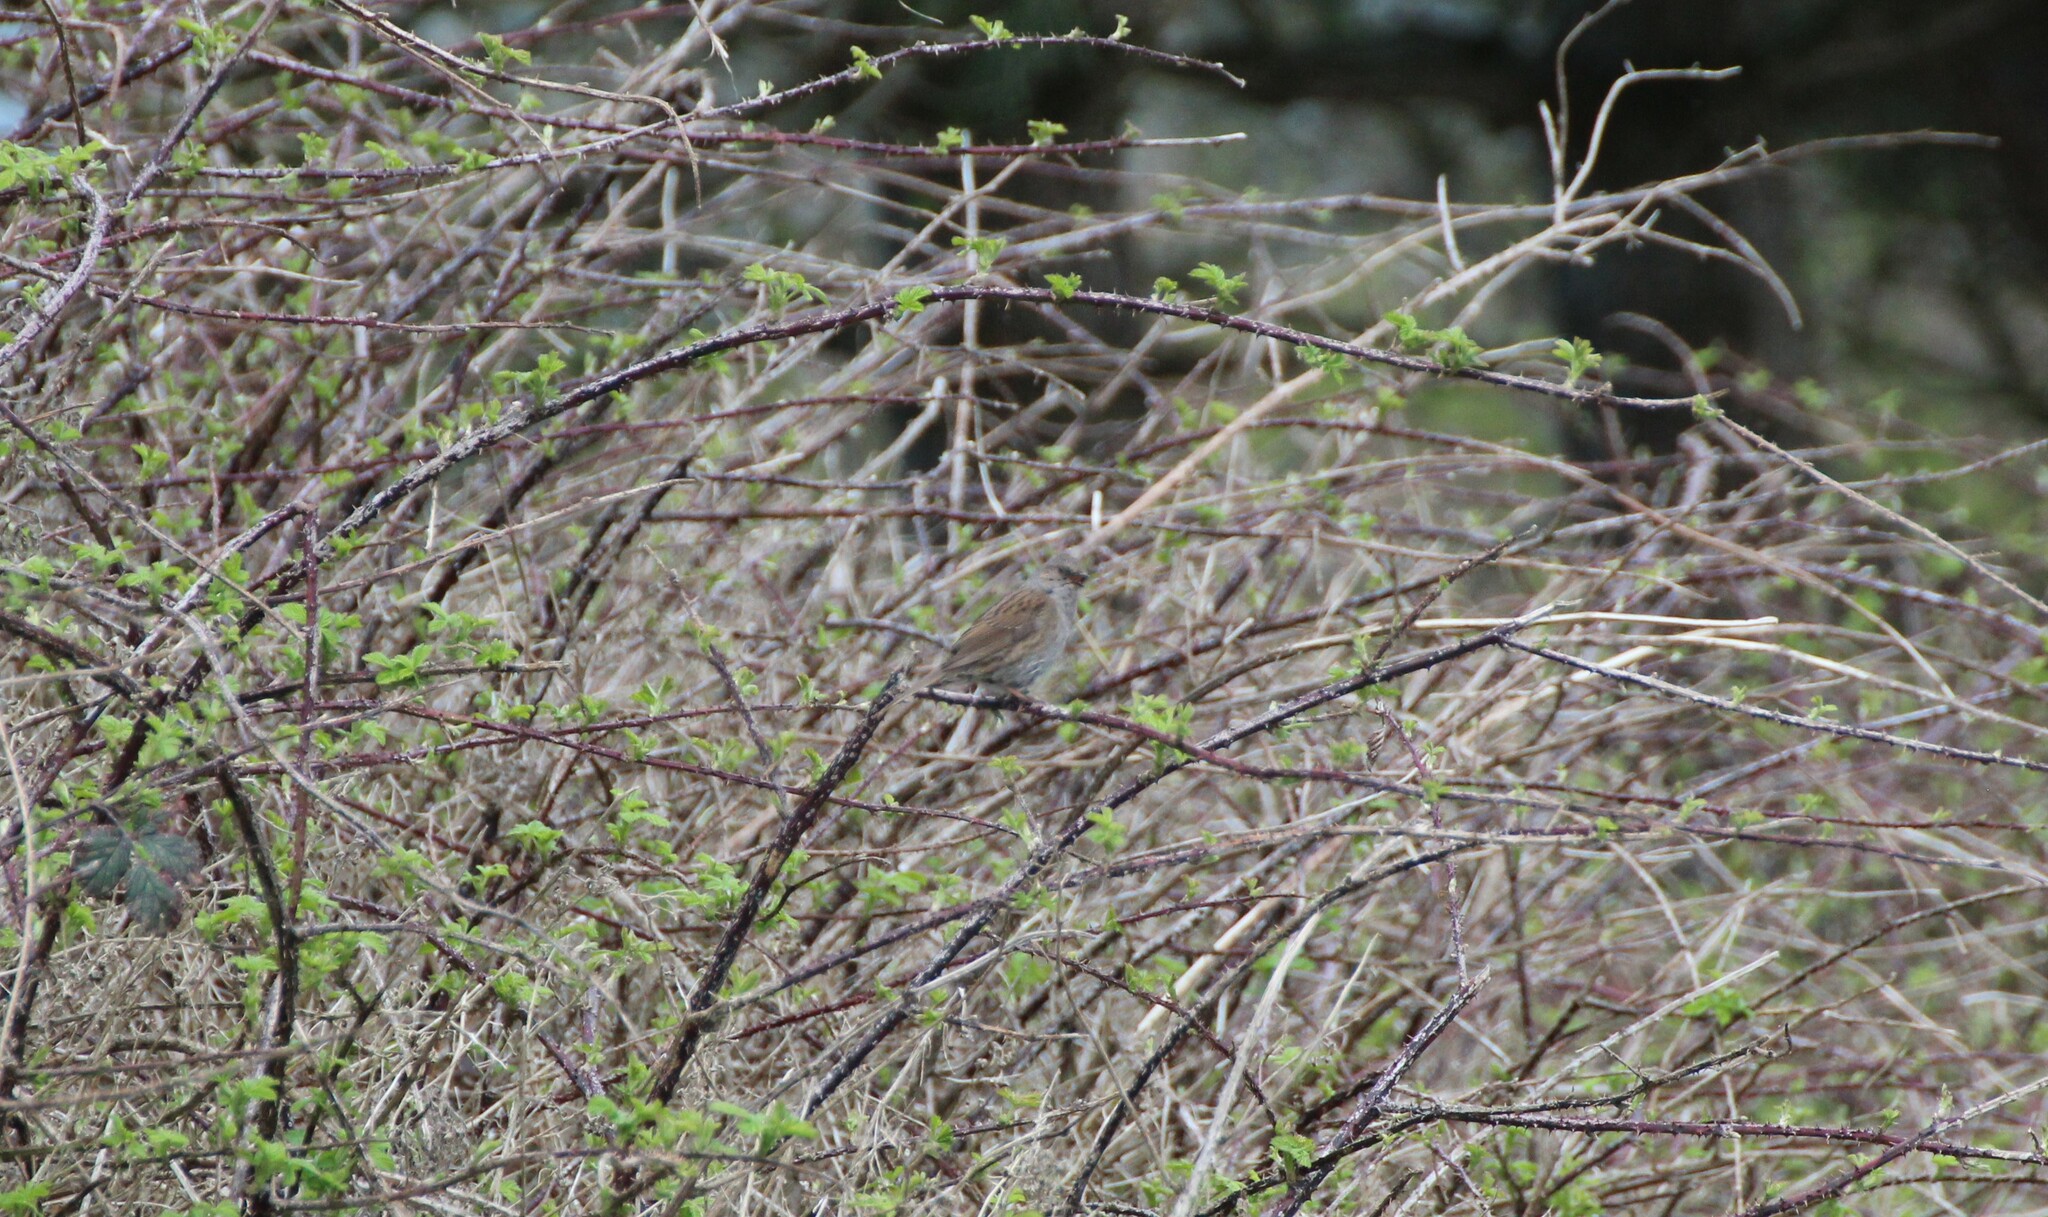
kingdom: Animalia
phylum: Chordata
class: Aves
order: Passeriformes
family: Prunellidae
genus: Prunella
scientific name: Prunella modularis
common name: Dunnock
